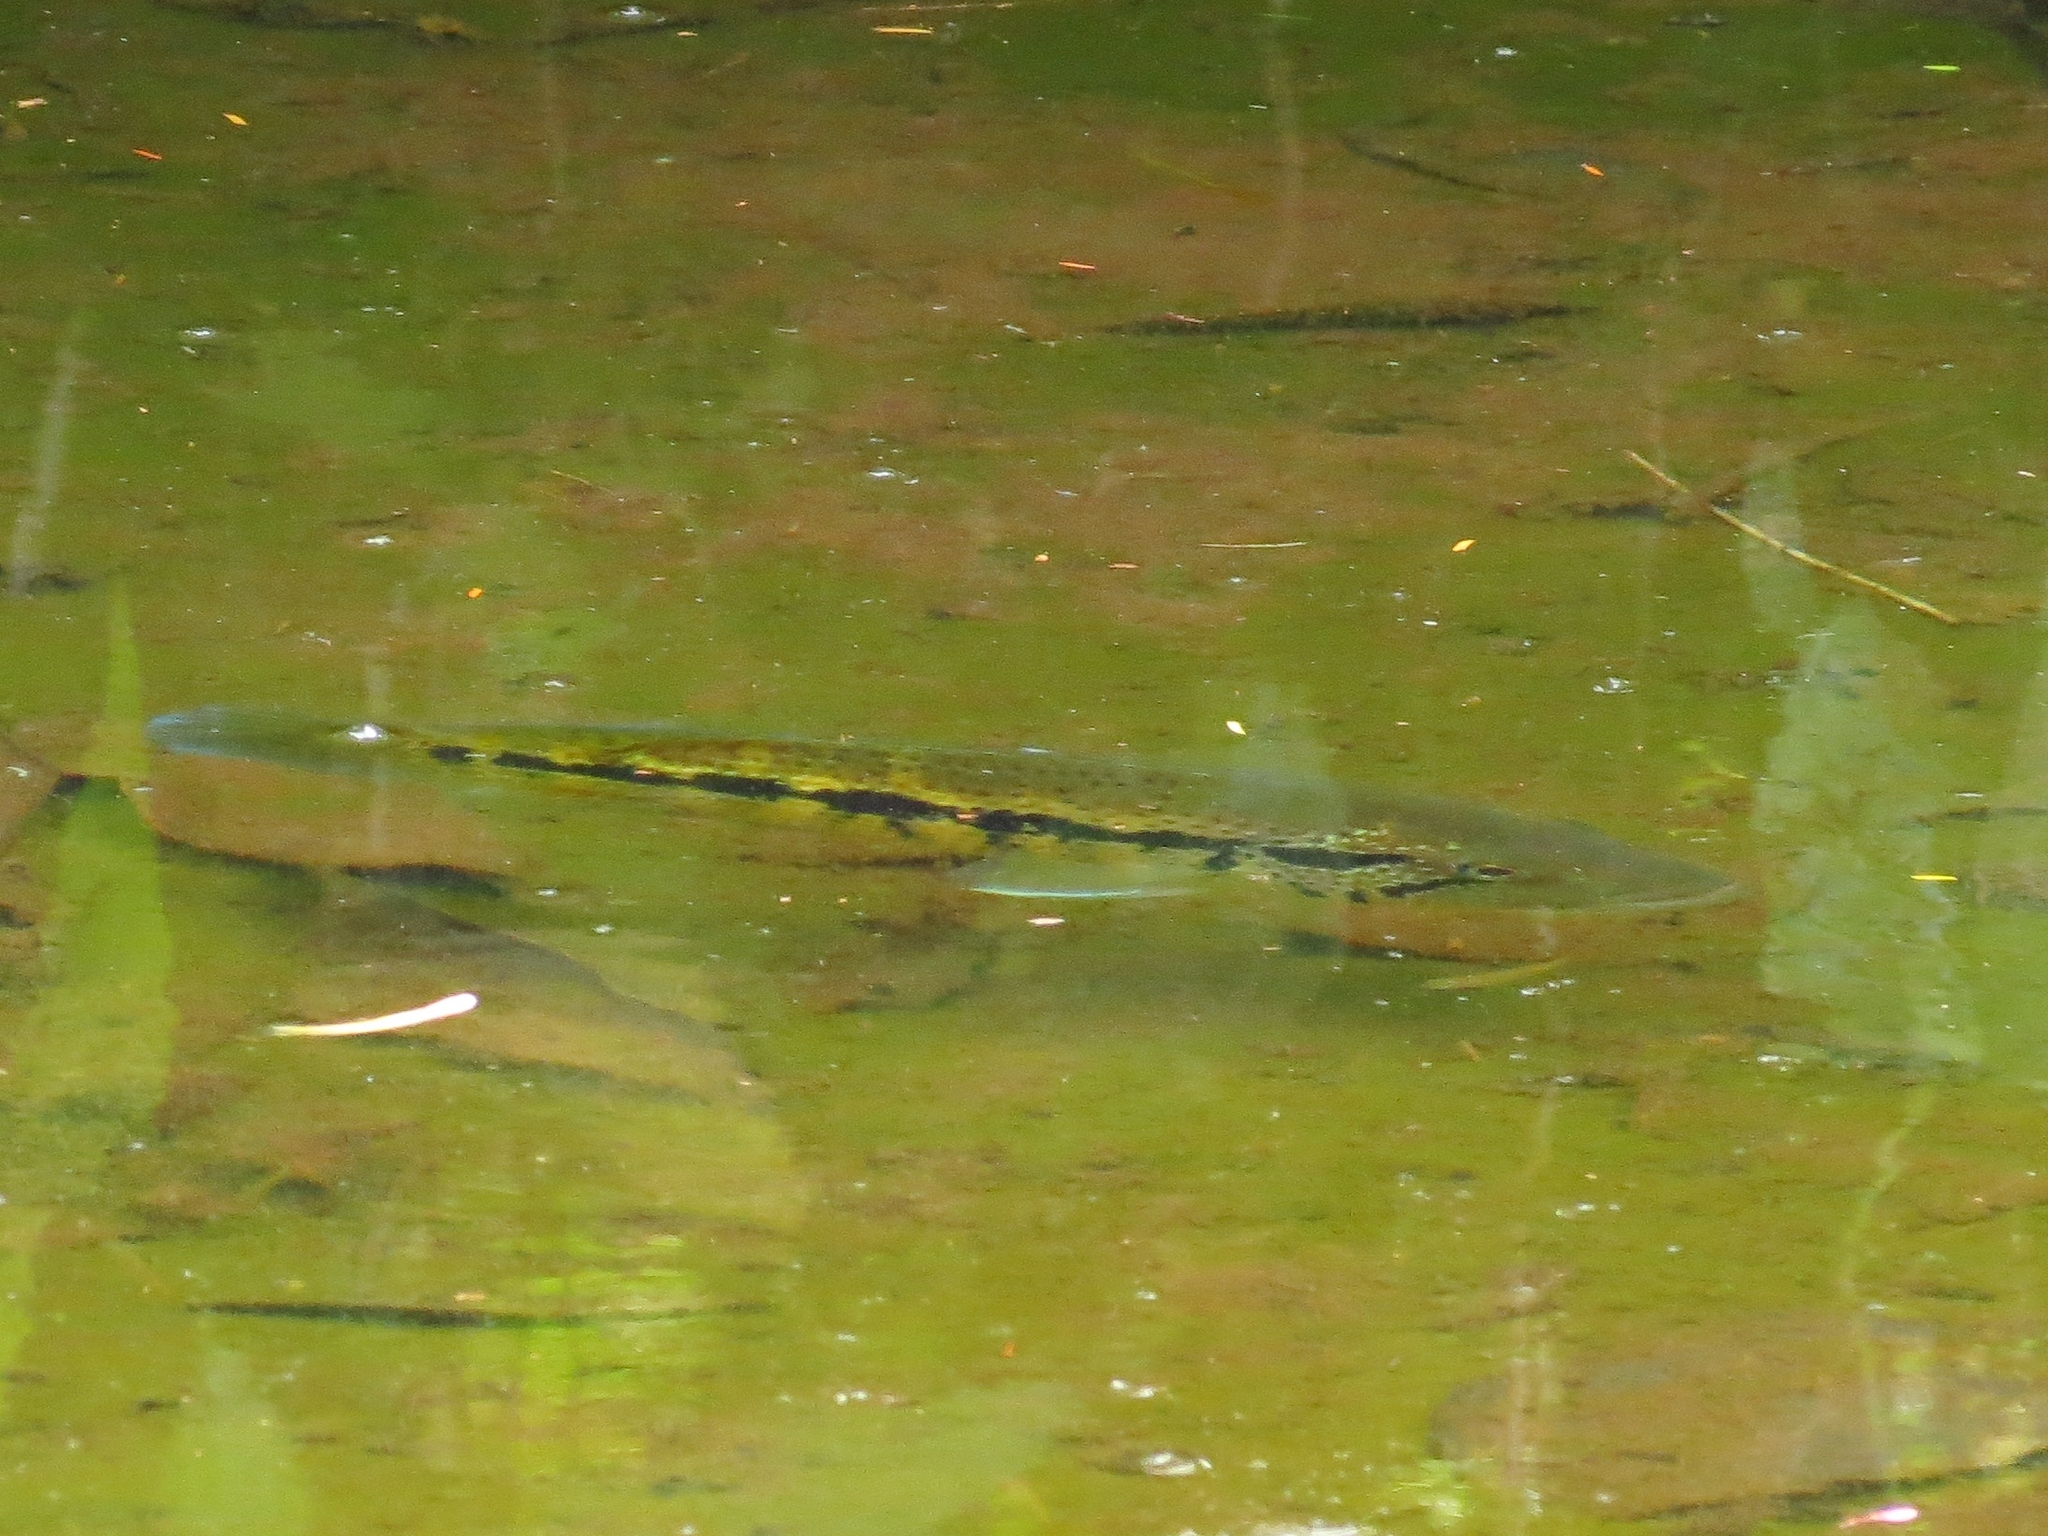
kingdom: Animalia
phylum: Chordata
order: Perciformes
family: Cichlidae
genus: Parachromis
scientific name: Parachromis dovii
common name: Guapote
